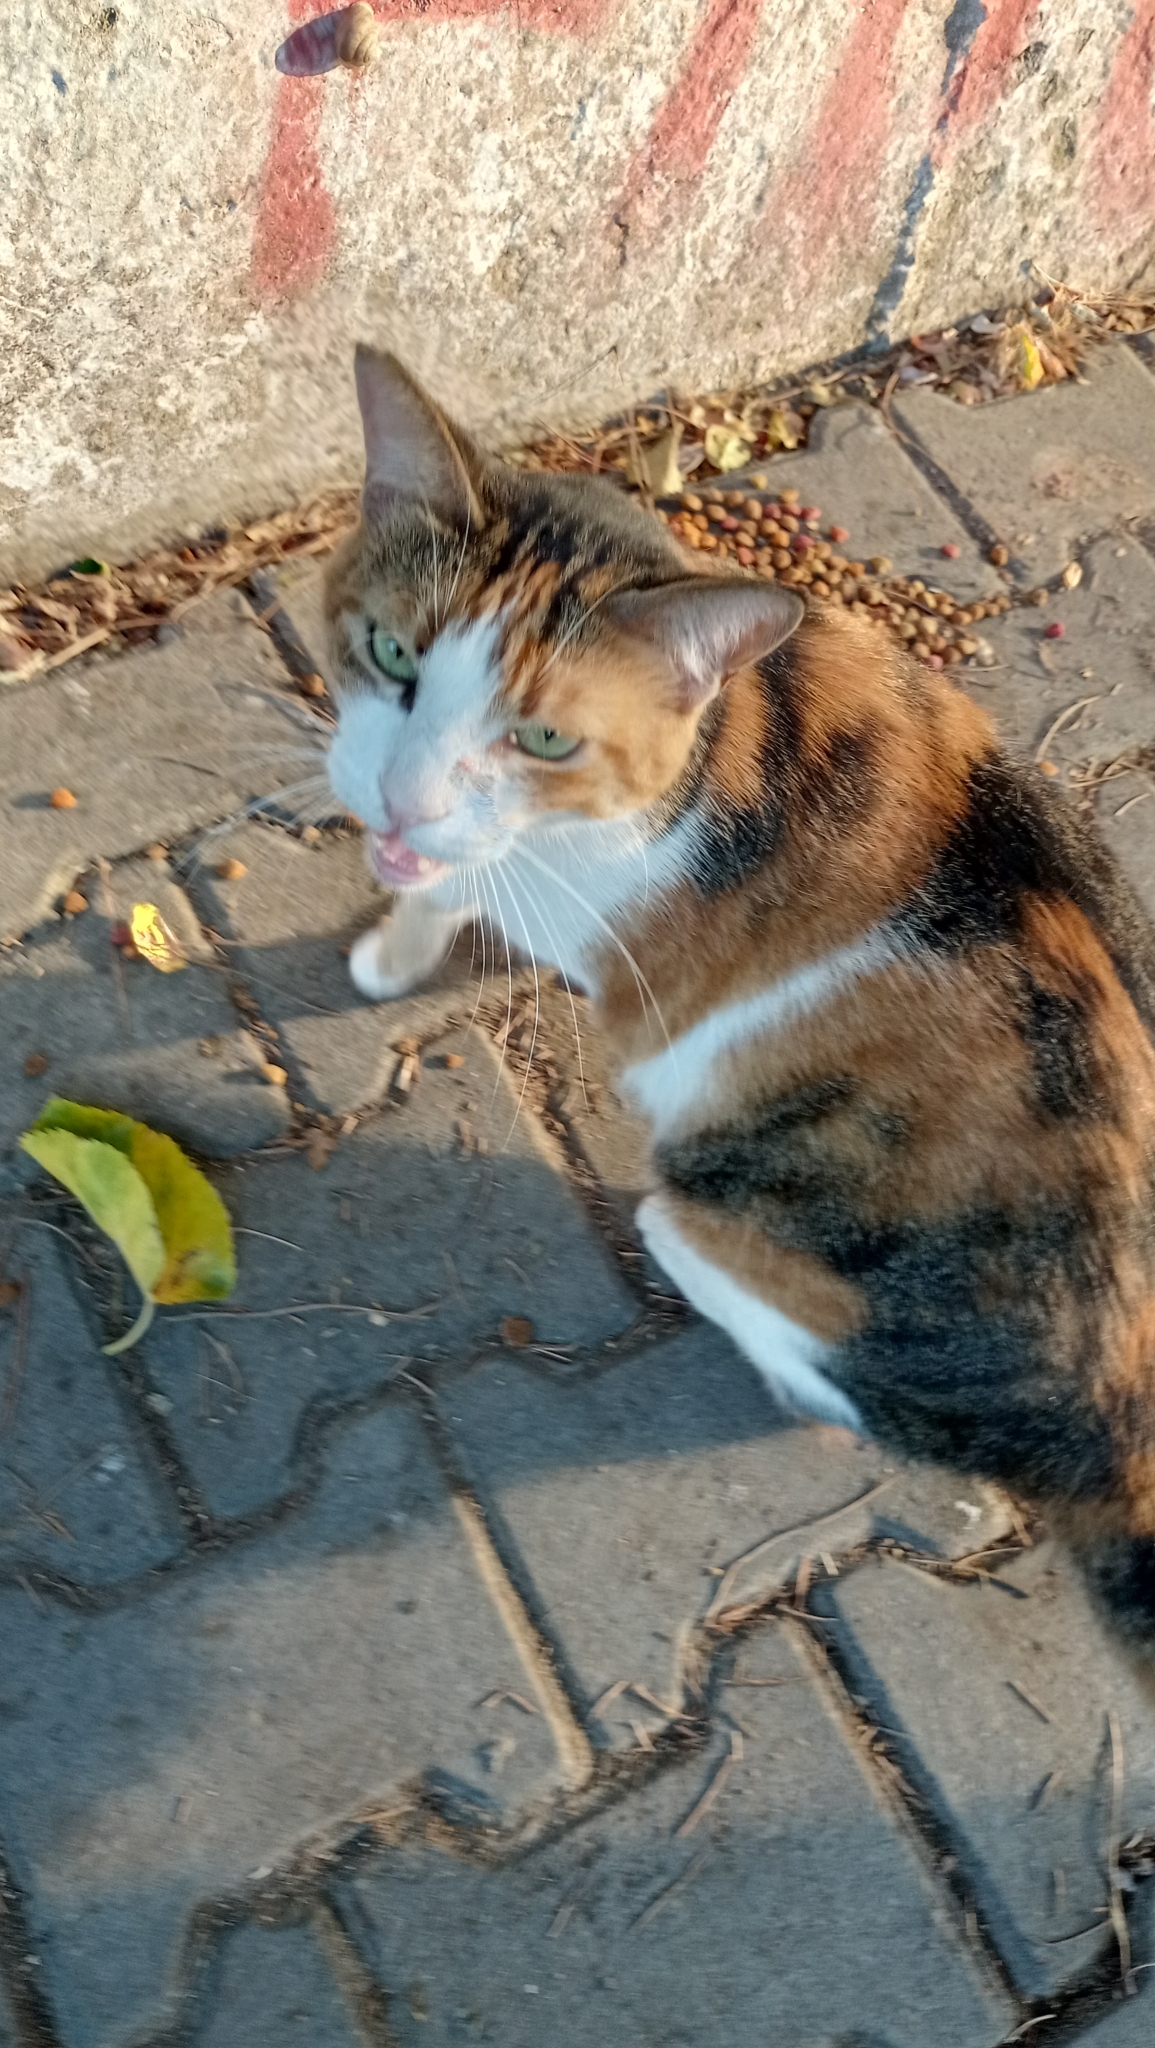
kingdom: Animalia
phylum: Chordata
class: Mammalia
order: Carnivora
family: Felidae
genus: Felis
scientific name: Felis catus
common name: Domestic cat
